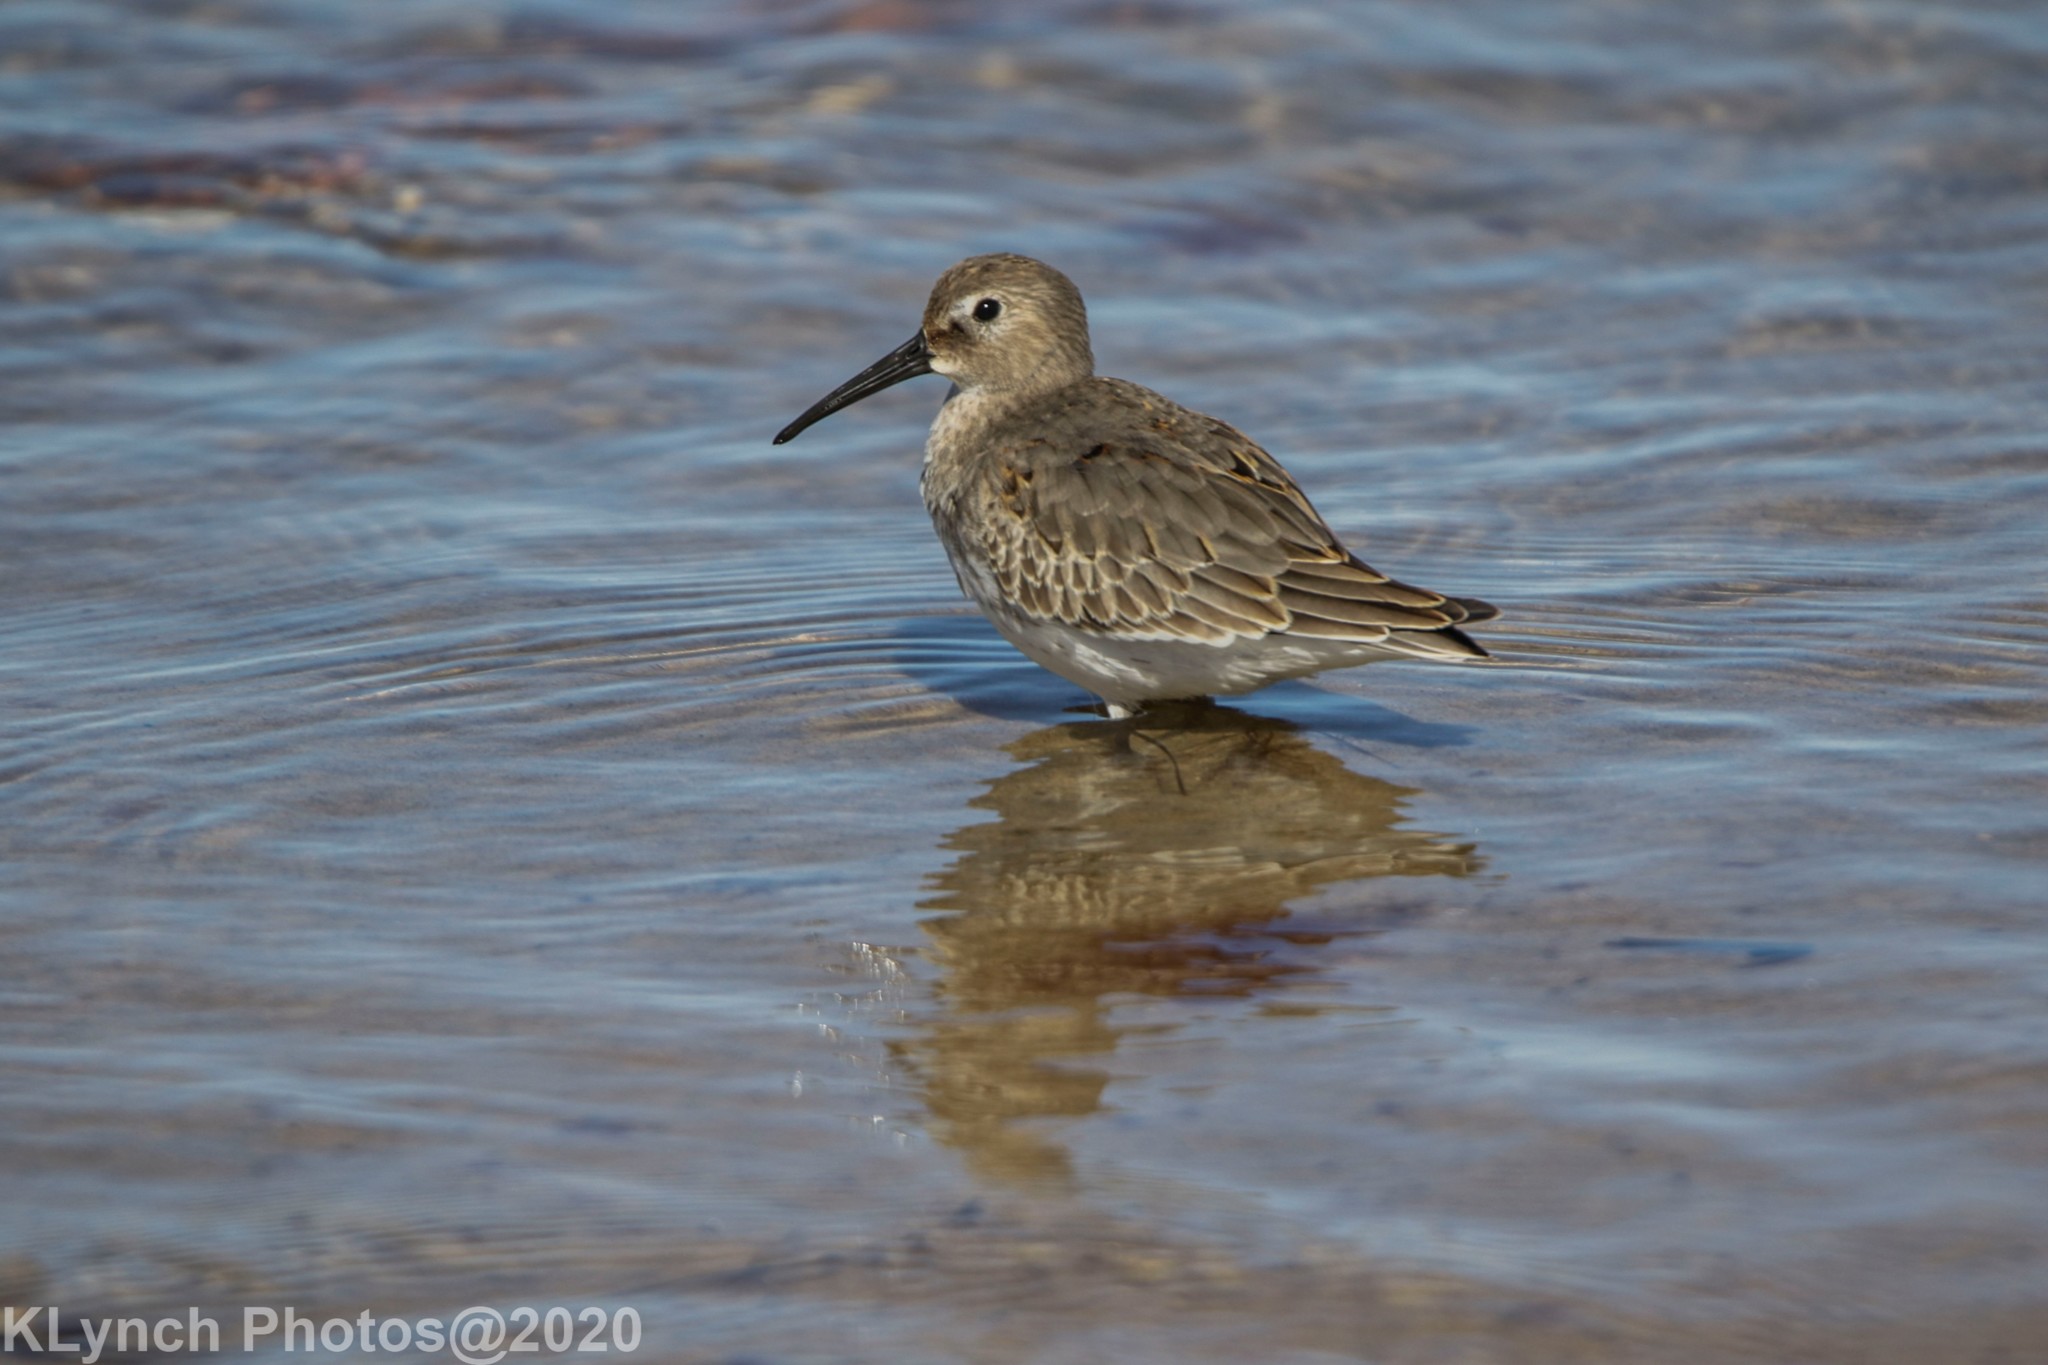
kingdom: Animalia
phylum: Chordata
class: Aves
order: Charadriiformes
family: Scolopacidae
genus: Calidris
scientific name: Calidris alpina
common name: Dunlin
